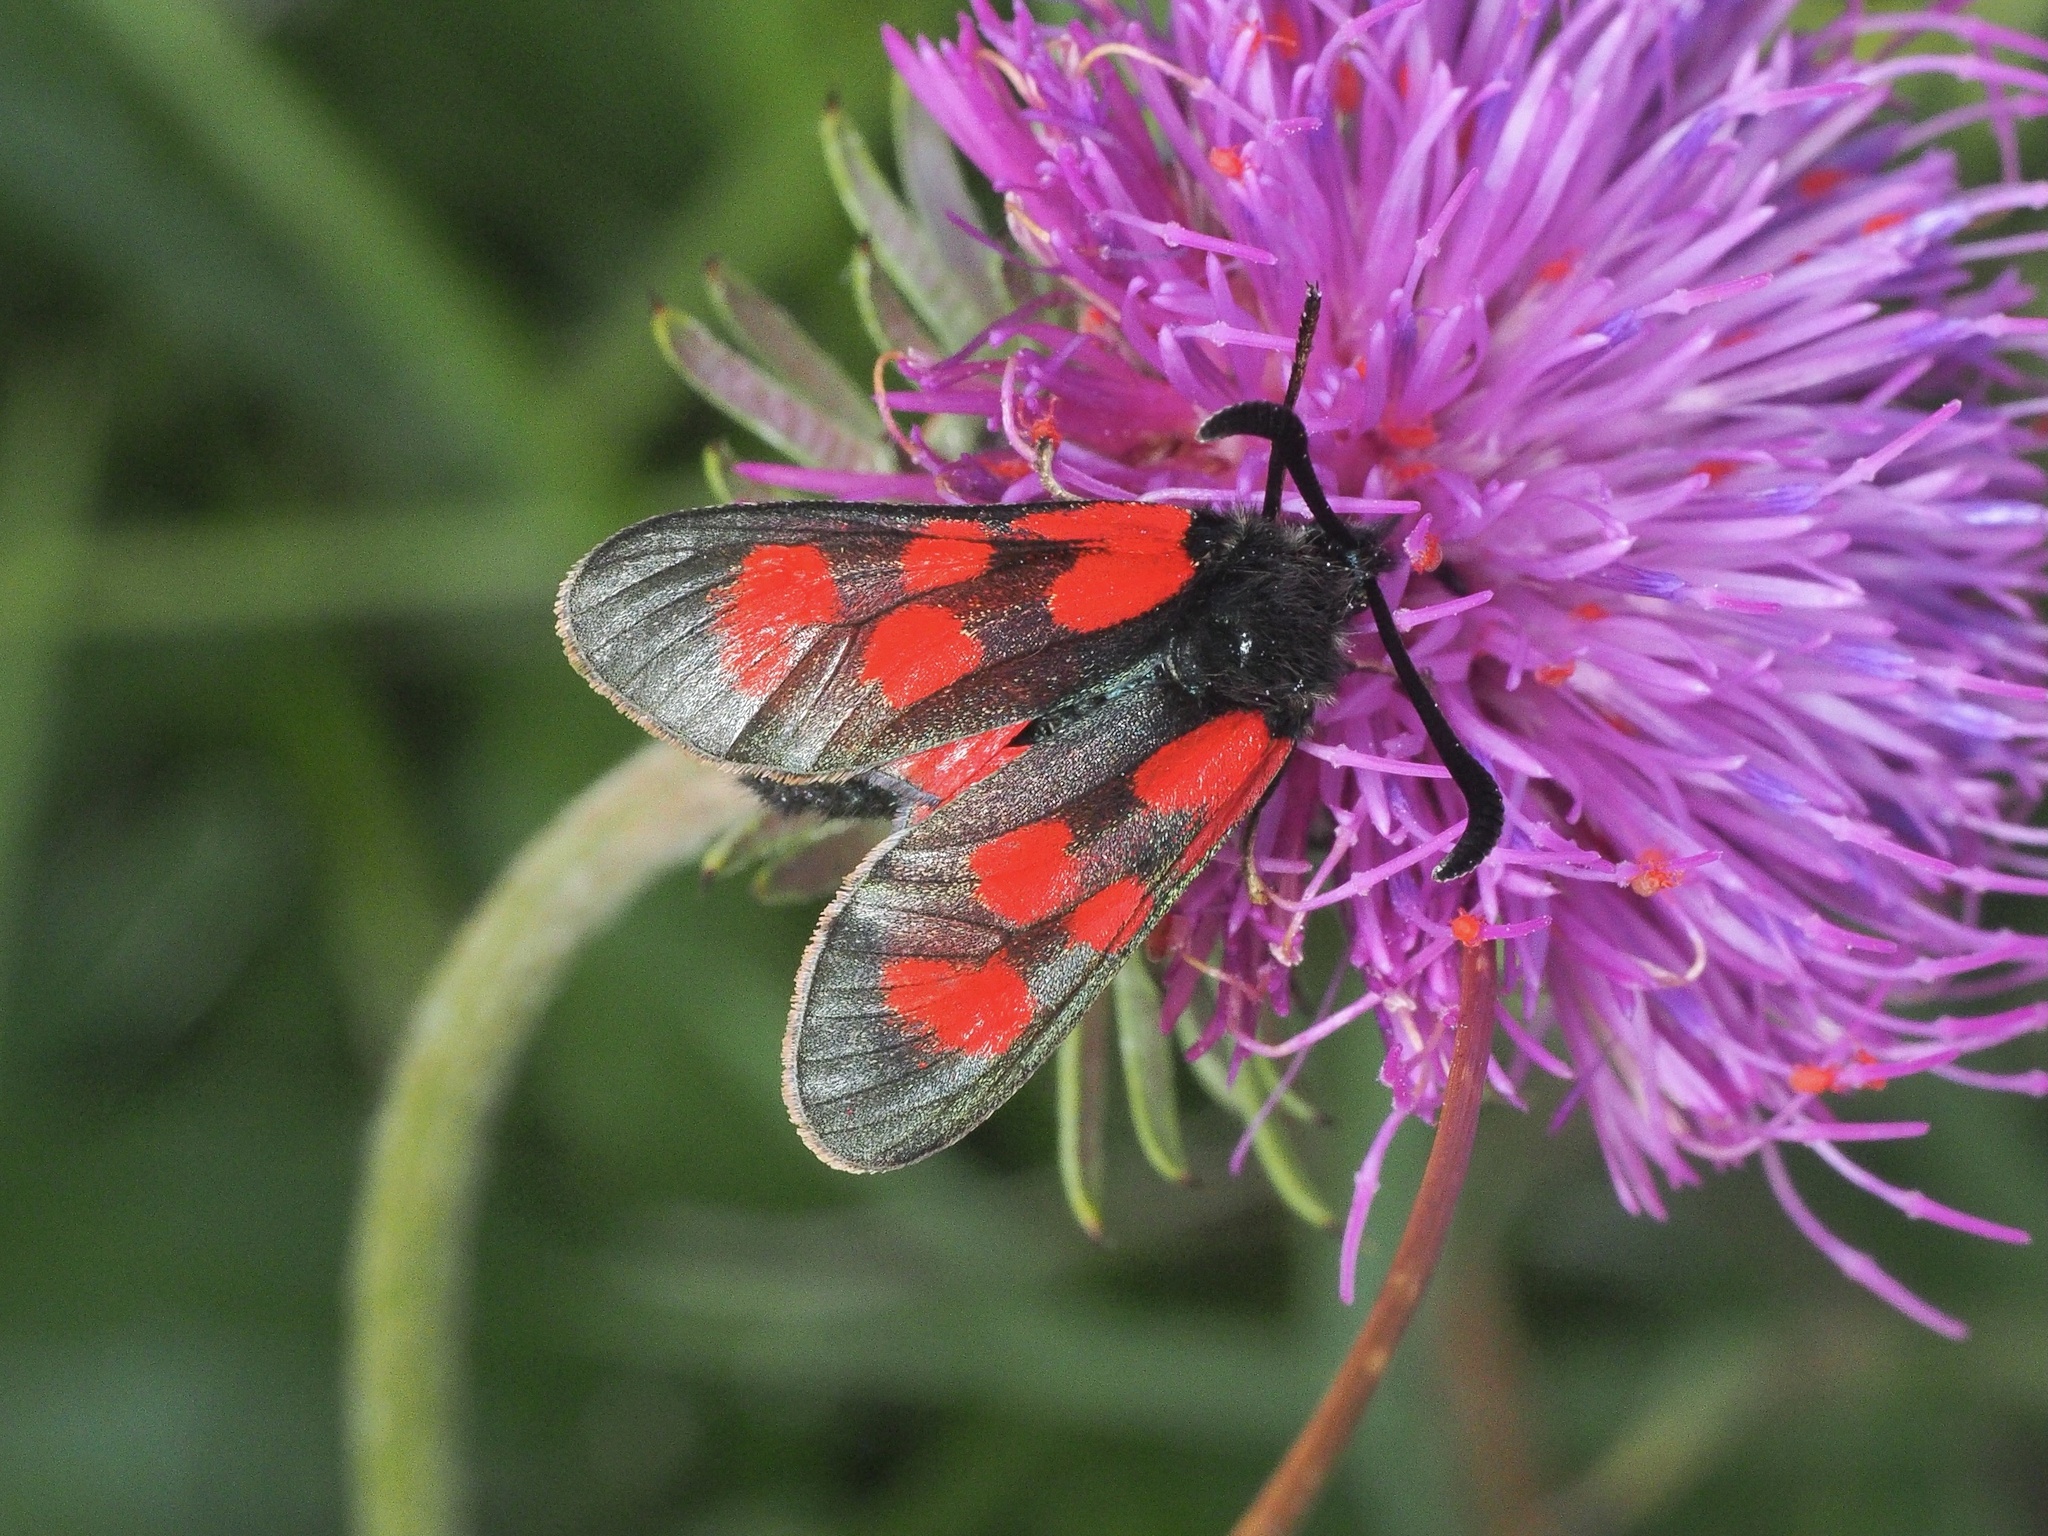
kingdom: Animalia
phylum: Arthropoda
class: Insecta
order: Lepidoptera
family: Zygaenidae
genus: Zygaena
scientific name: Zygaena loti
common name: Slender scotch burnet
